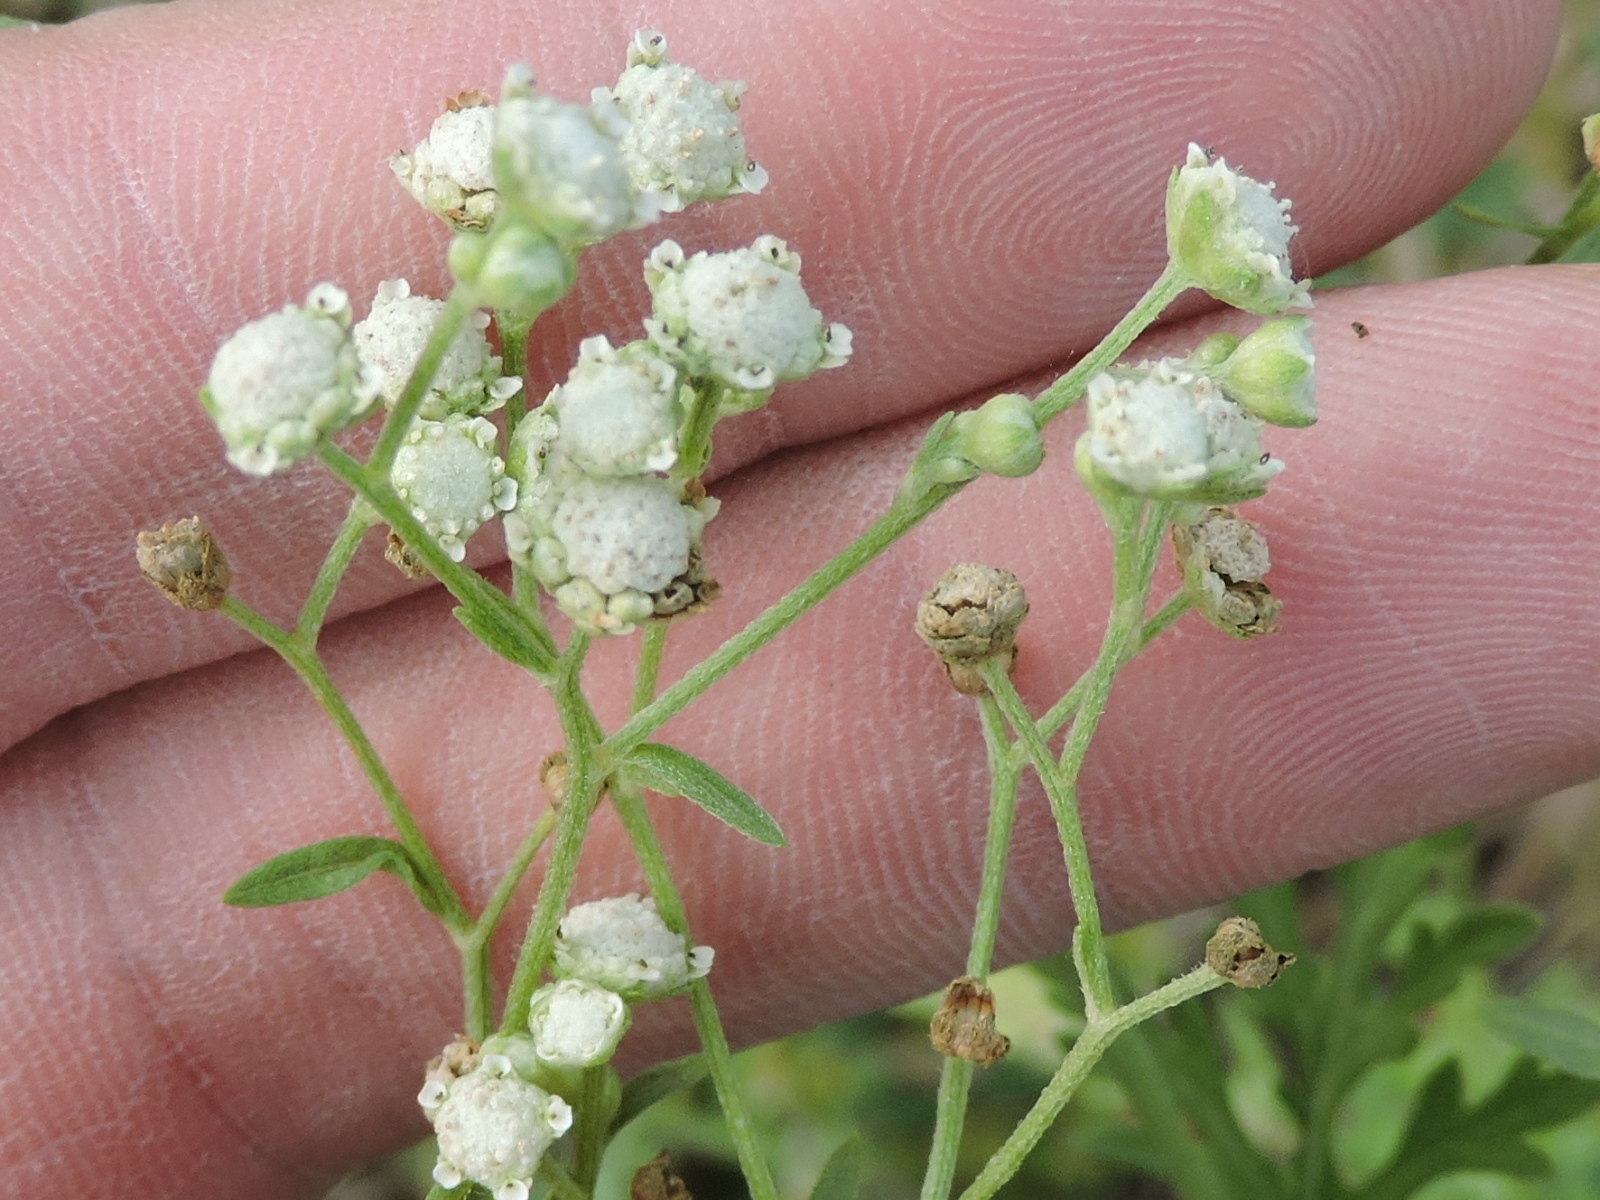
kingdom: Plantae
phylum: Tracheophyta
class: Magnoliopsida
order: Asterales
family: Asteraceae
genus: Parthenium
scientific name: Parthenium hysterophorus
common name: Santa maria feverfew
